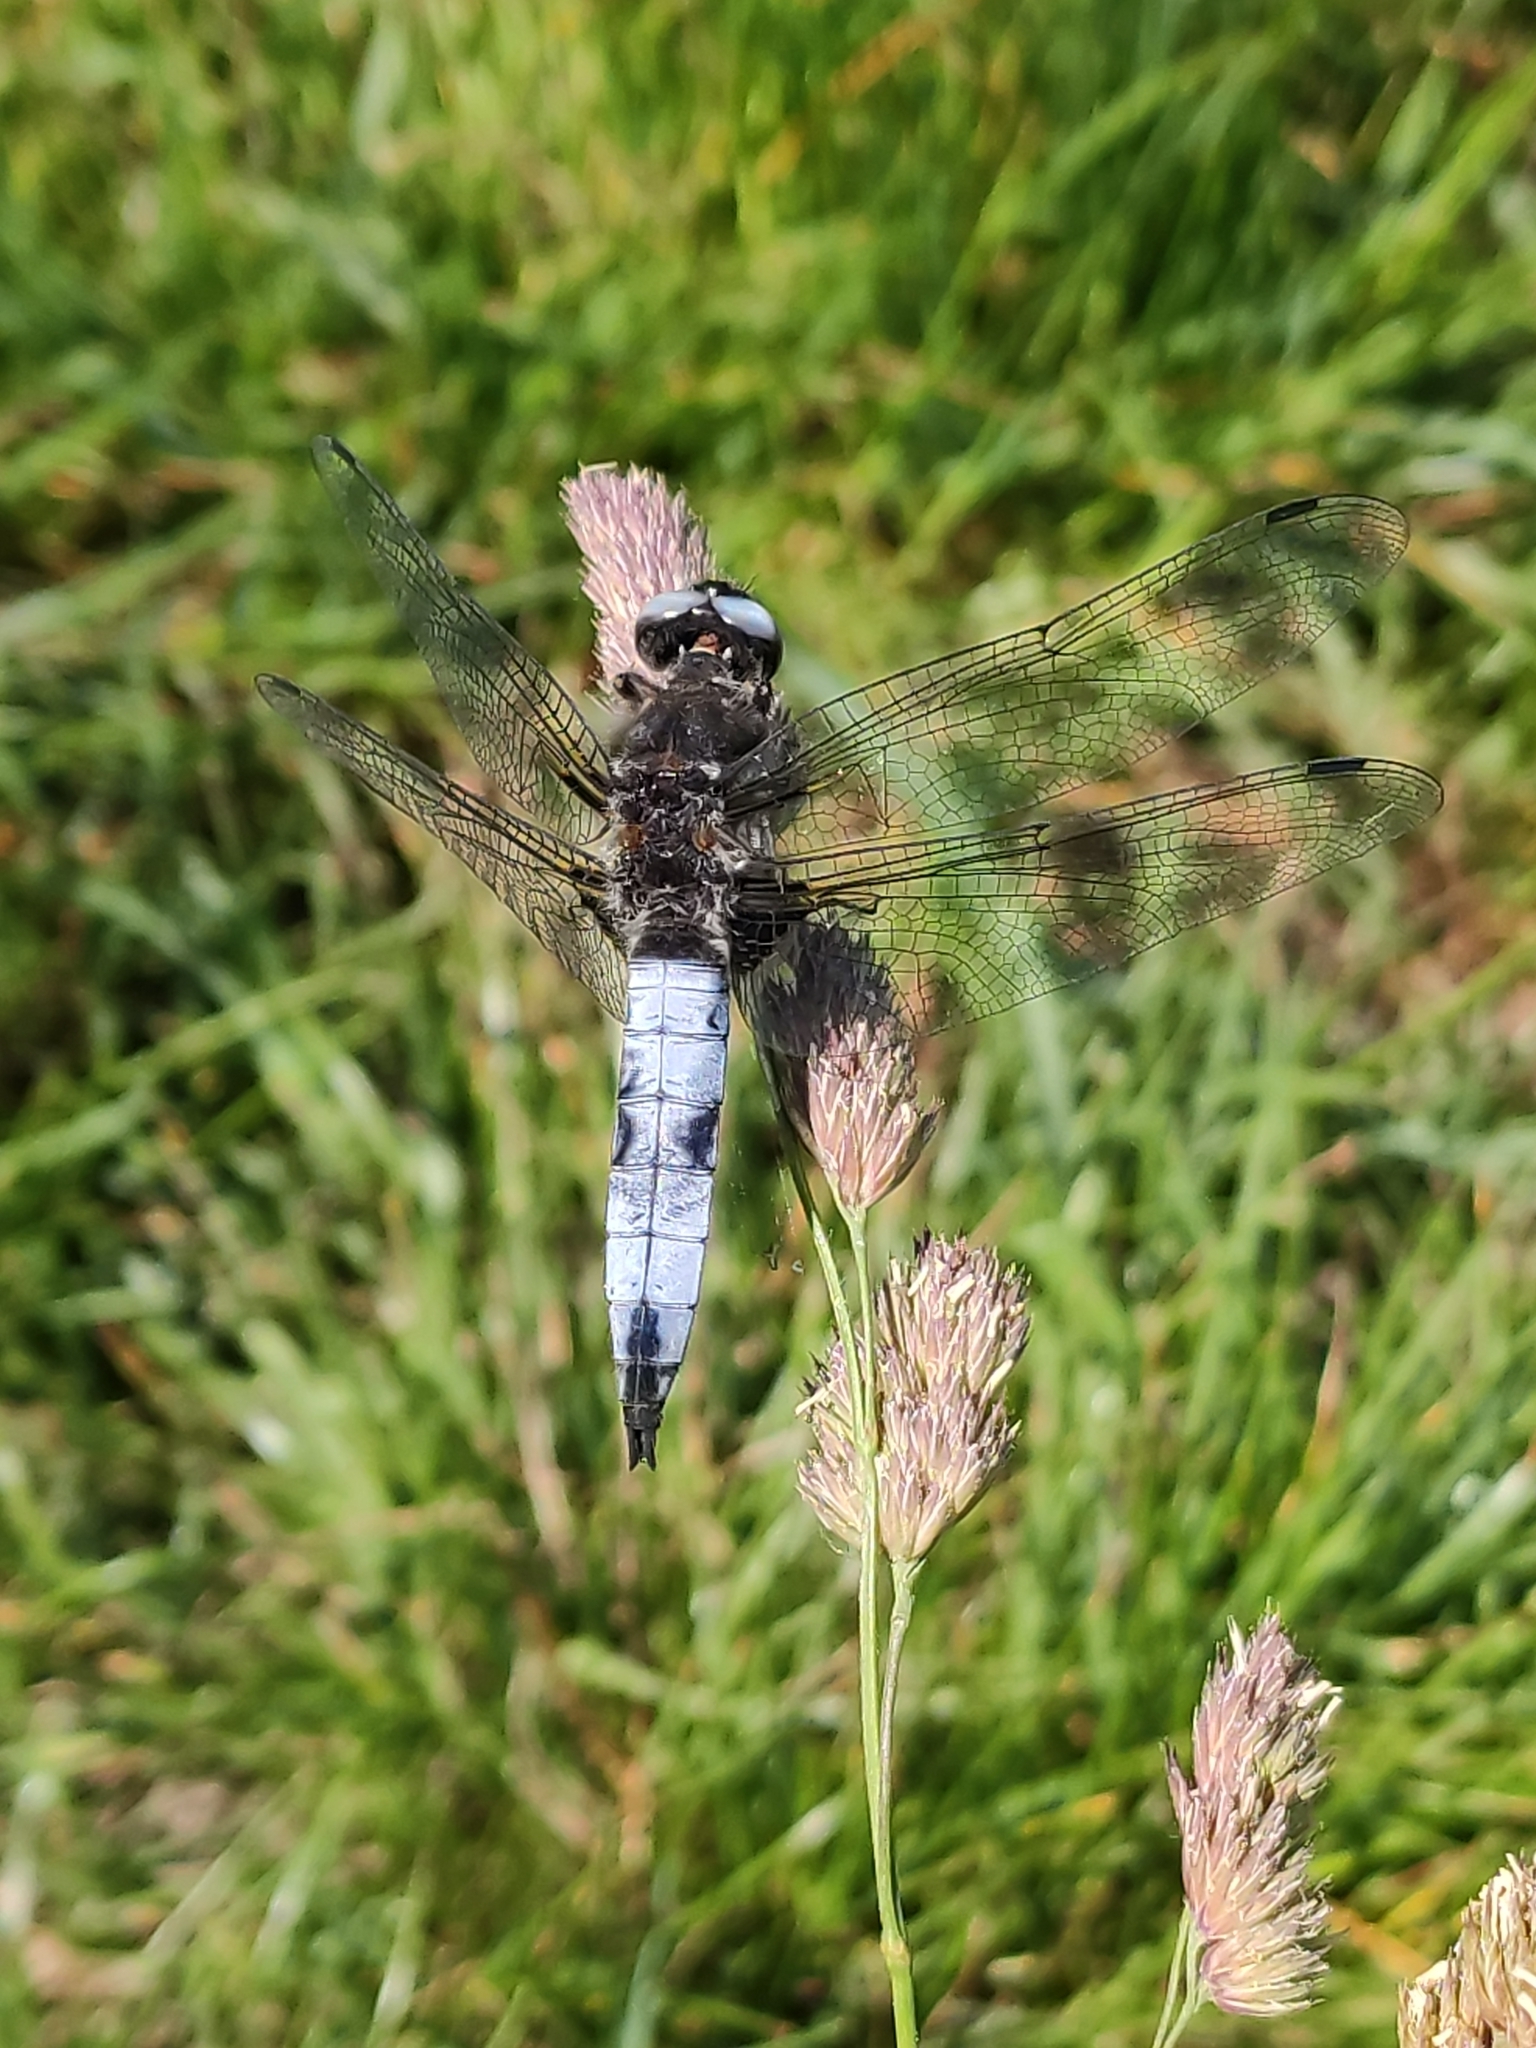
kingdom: Animalia
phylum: Arthropoda
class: Insecta
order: Odonata
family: Libellulidae
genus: Libellula
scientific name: Libellula fulva
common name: Blue chaser
